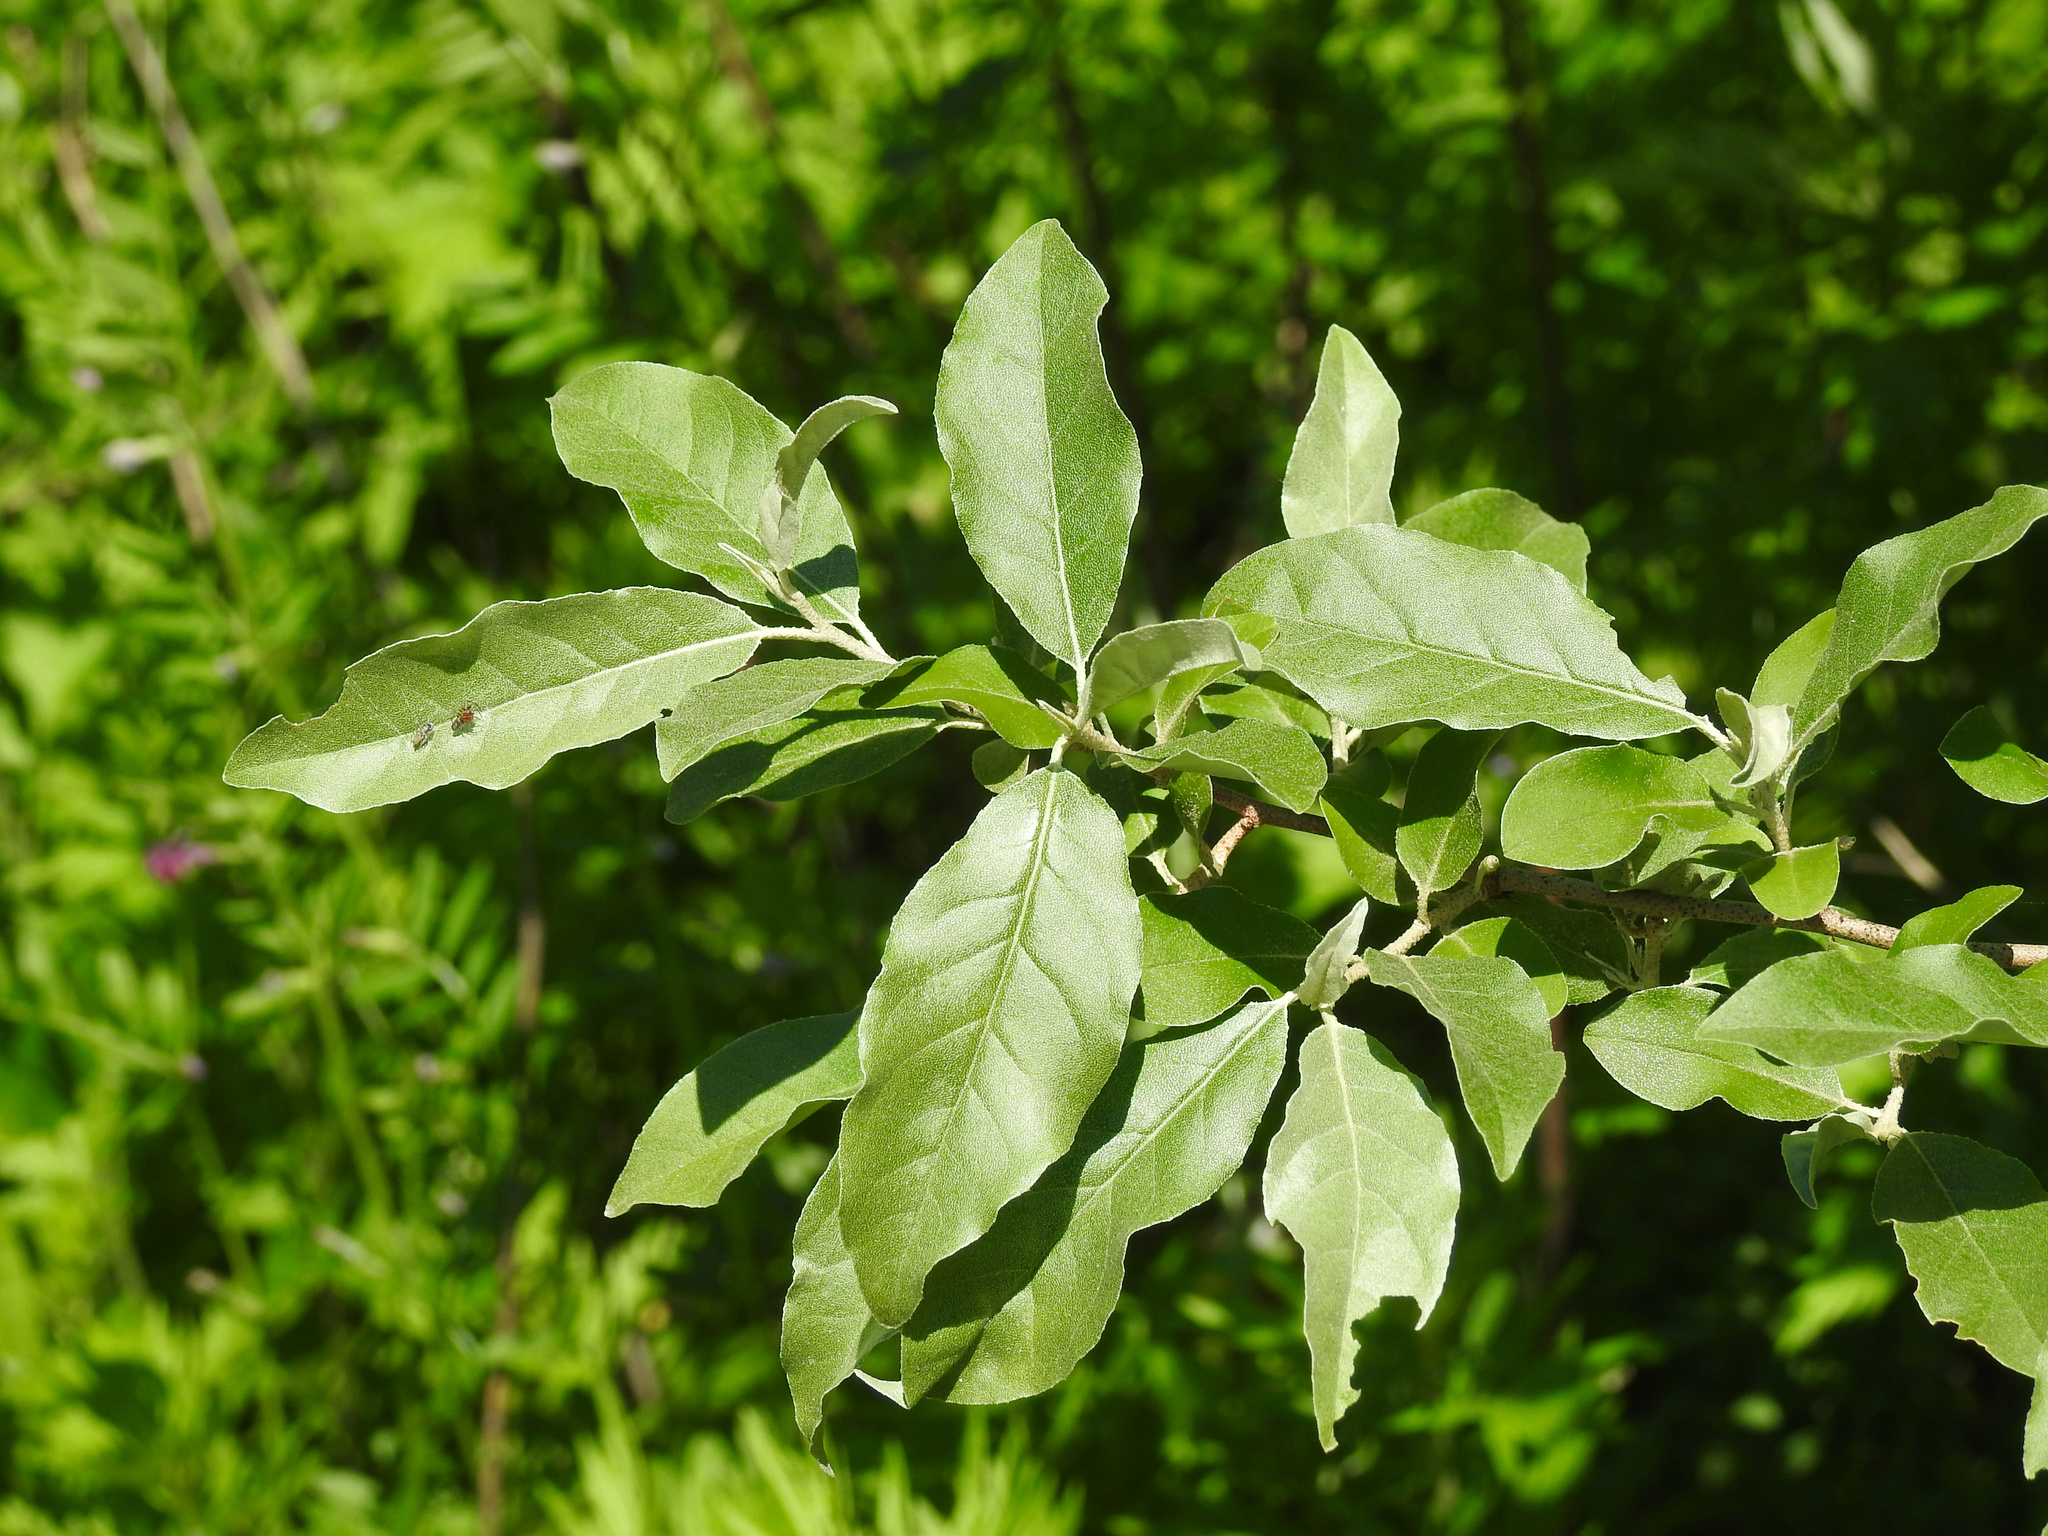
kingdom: Plantae
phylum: Tracheophyta
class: Magnoliopsida
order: Rosales
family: Elaeagnaceae
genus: Elaeagnus
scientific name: Elaeagnus umbellata
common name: Autumn olive
